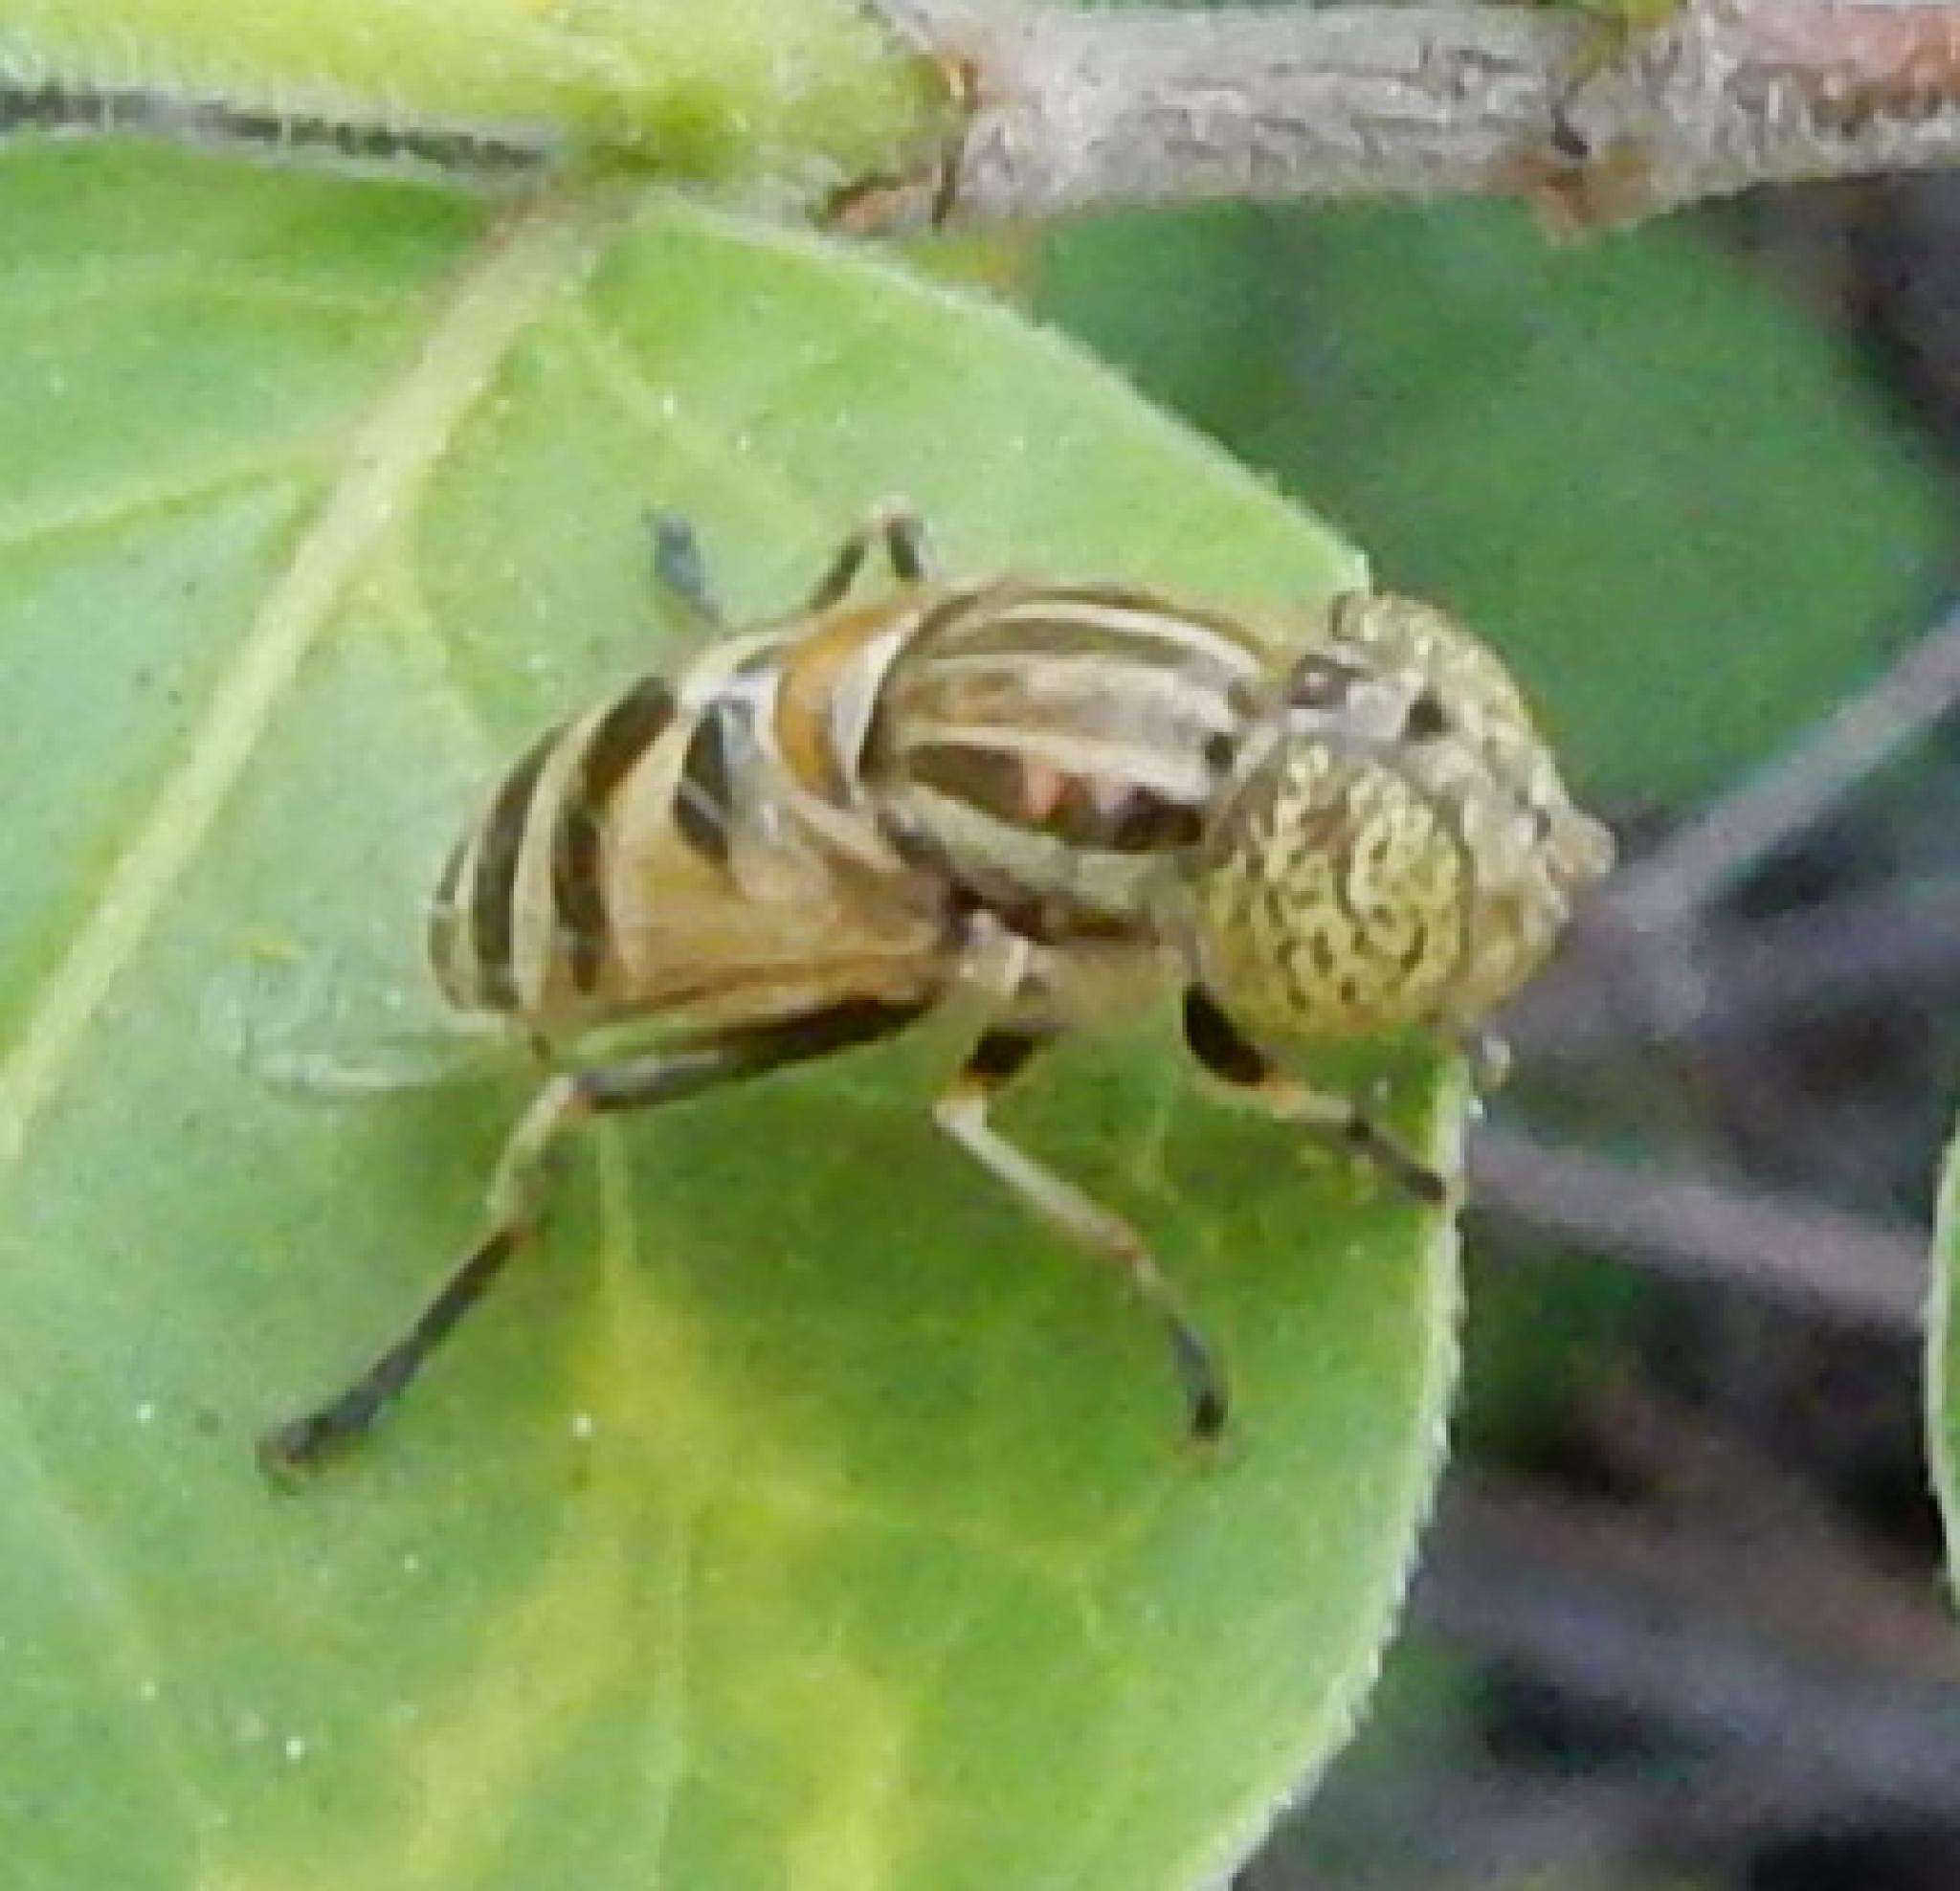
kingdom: Animalia
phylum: Arthropoda
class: Insecta
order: Diptera
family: Syrphidae
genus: Eristalinus
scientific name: Eristalinus megacephalus
